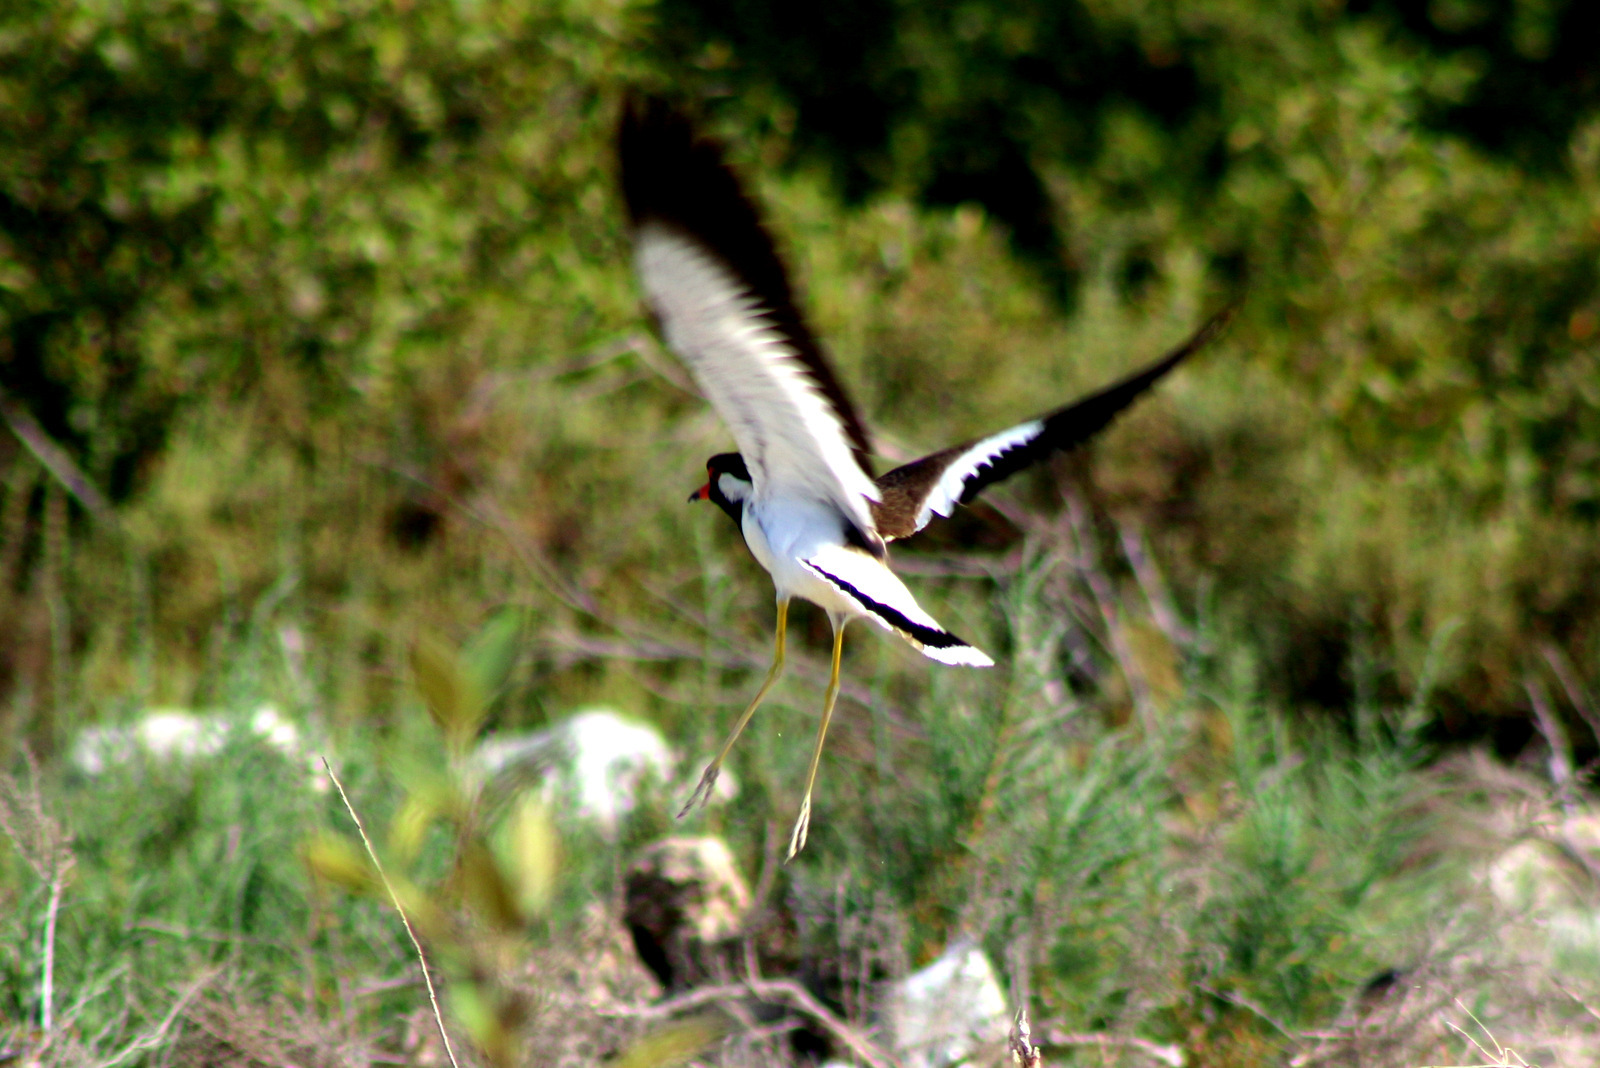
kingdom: Animalia
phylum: Chordata
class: Aves
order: Charadriiformes
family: Charadriidae
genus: Vanellus
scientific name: Vanellus indicus
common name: Red-wattled lapwing
